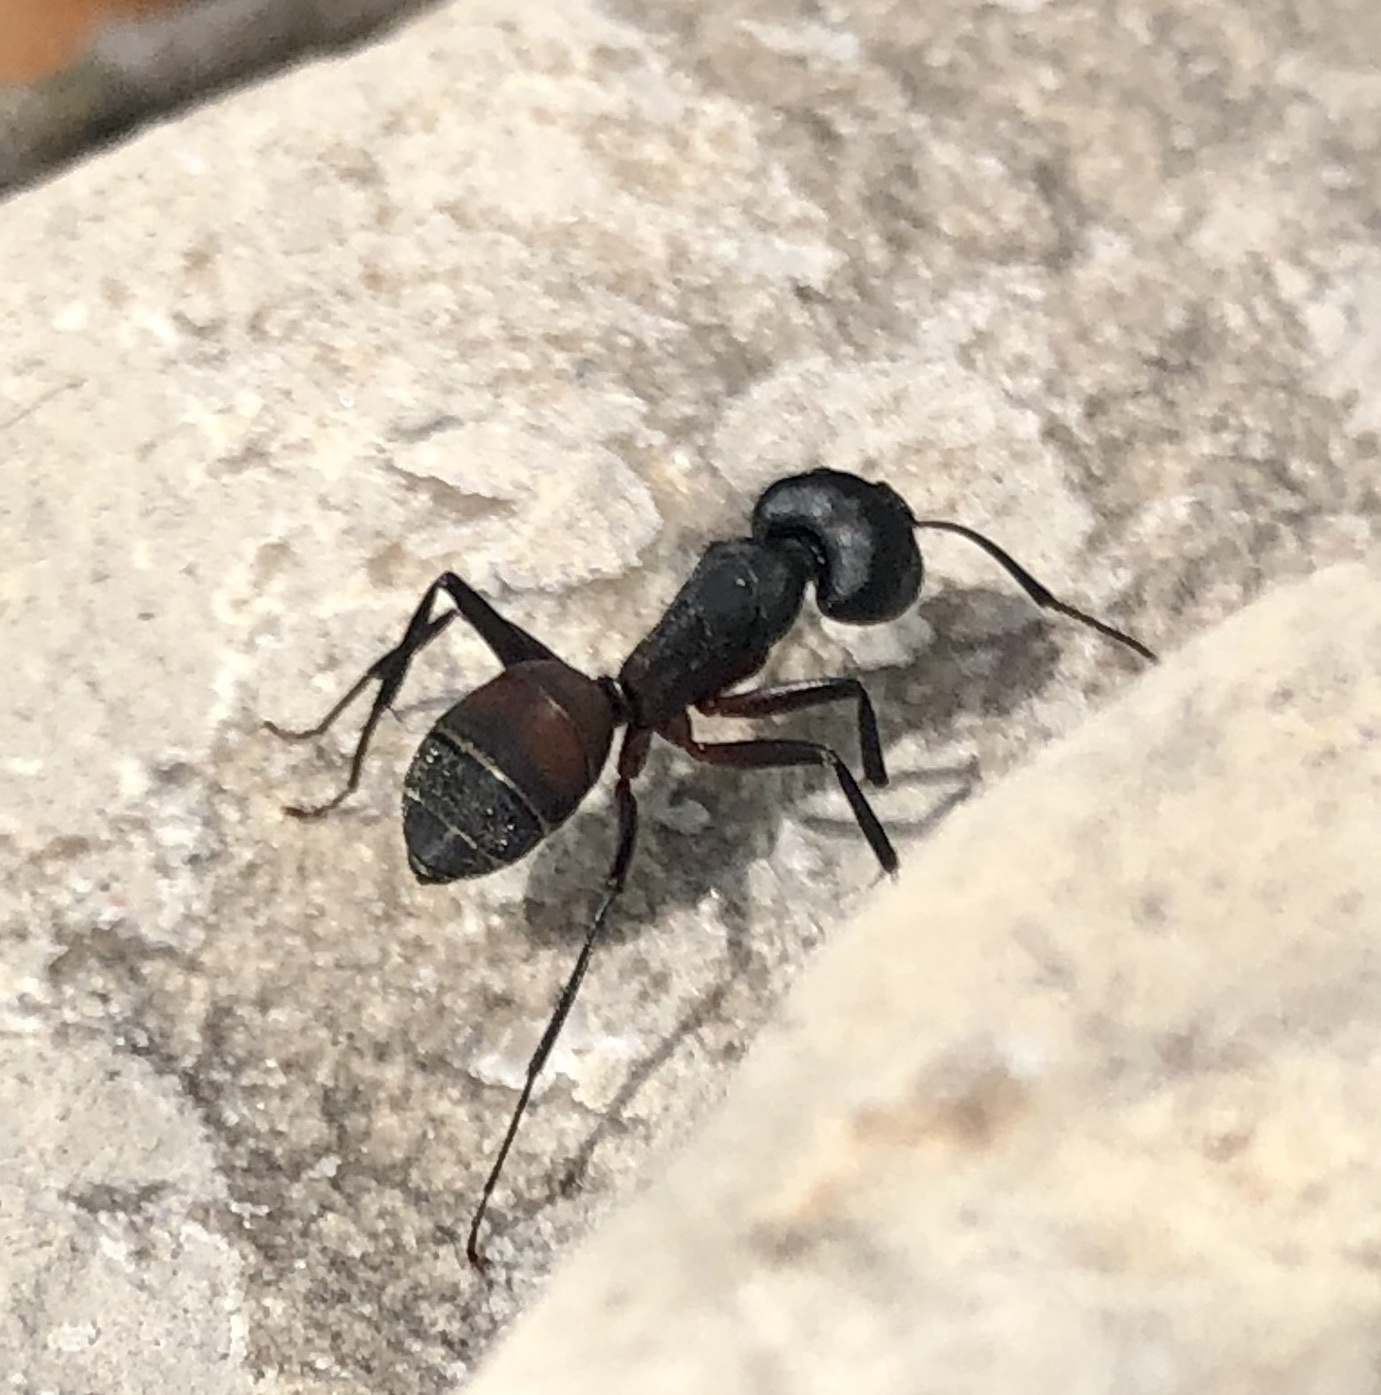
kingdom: Animalia
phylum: Arthropoda
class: Insecta
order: Hymenoptera
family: Formicidae
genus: Camponotus
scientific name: Camponotus cruentatus
